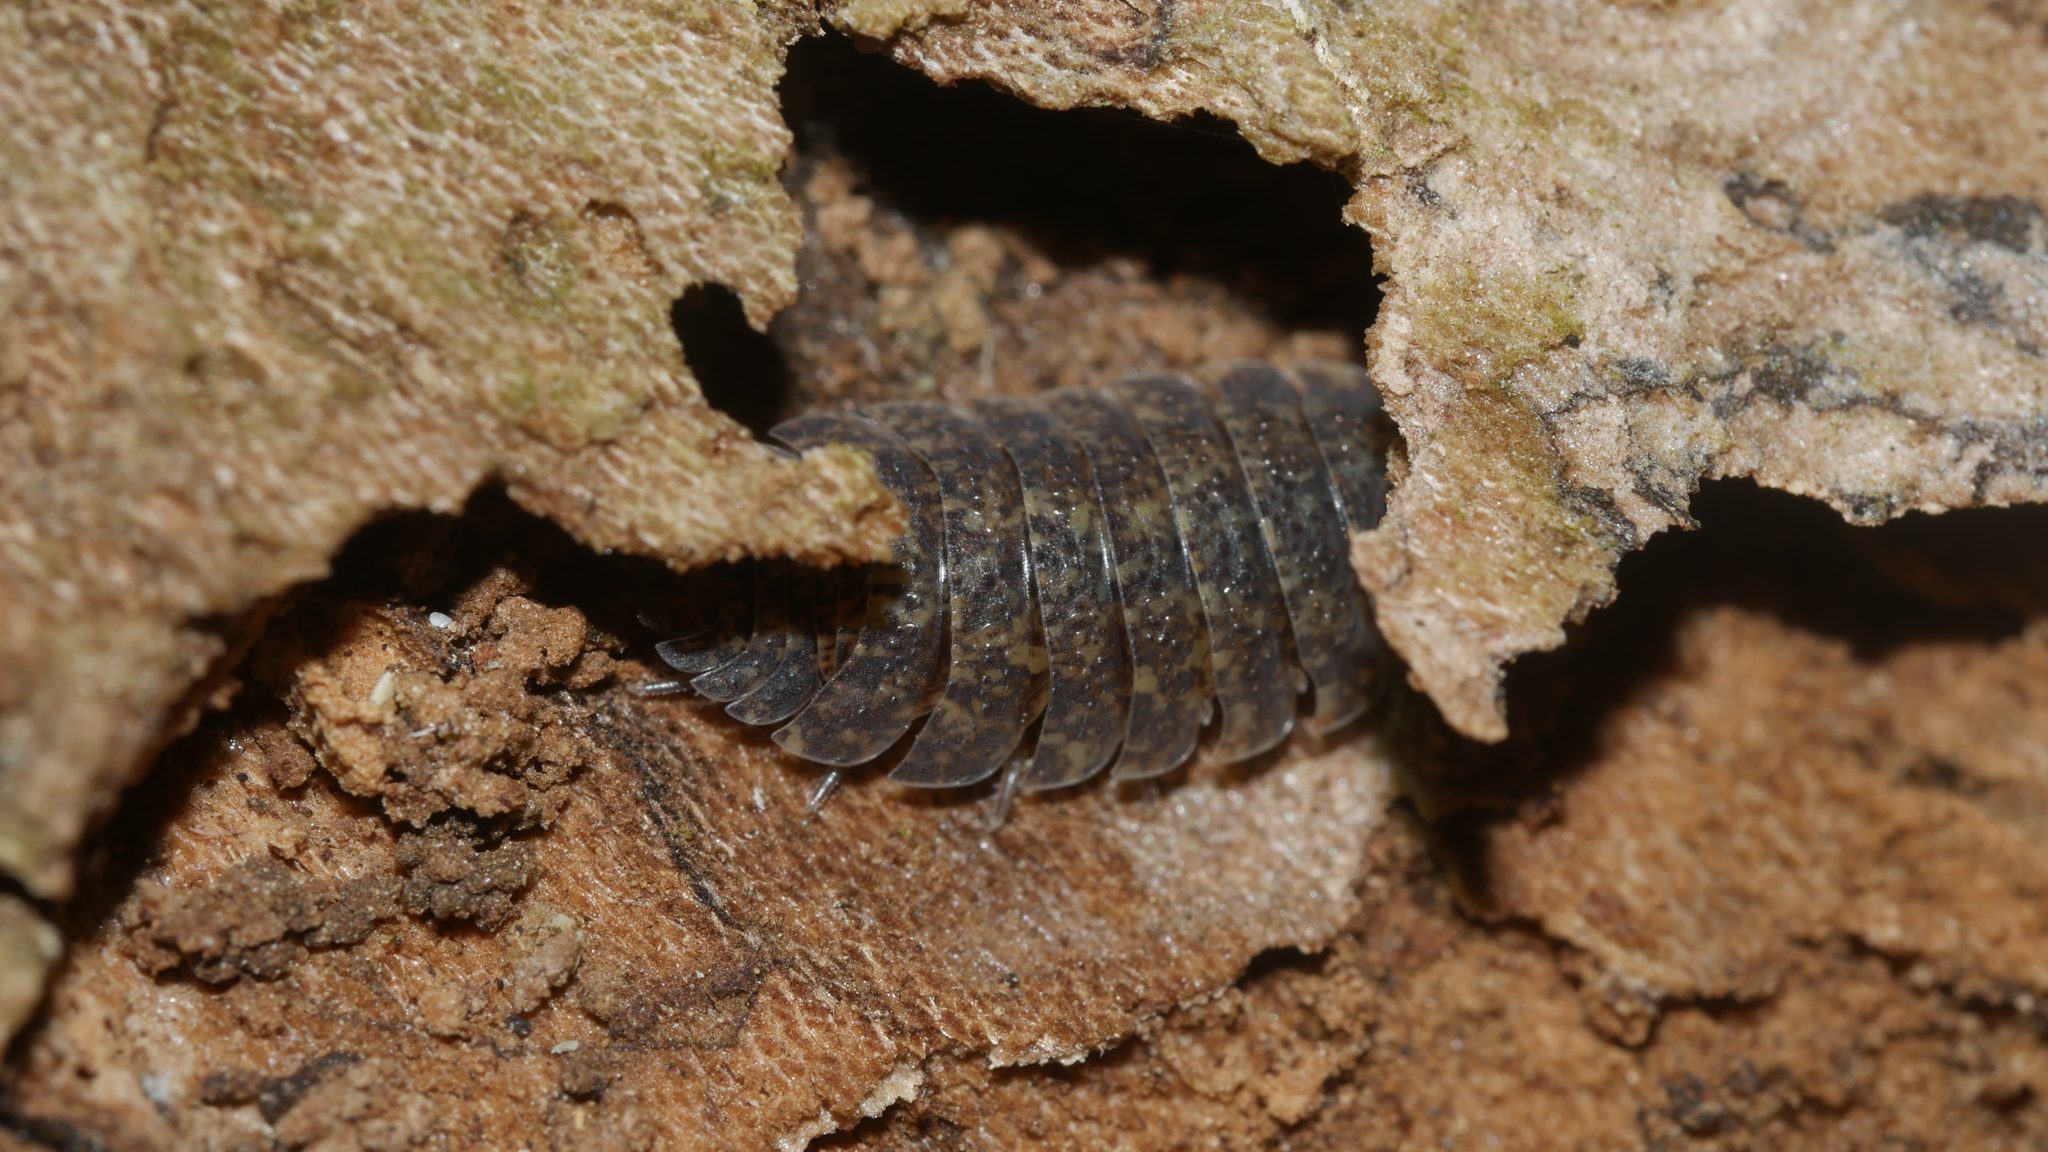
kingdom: Animalia
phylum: Arthropoda
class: Malacostraca
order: Isopoda
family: Porcellionidae
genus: Porcellio
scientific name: Porcellio scaber
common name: Common rough woodlouse
